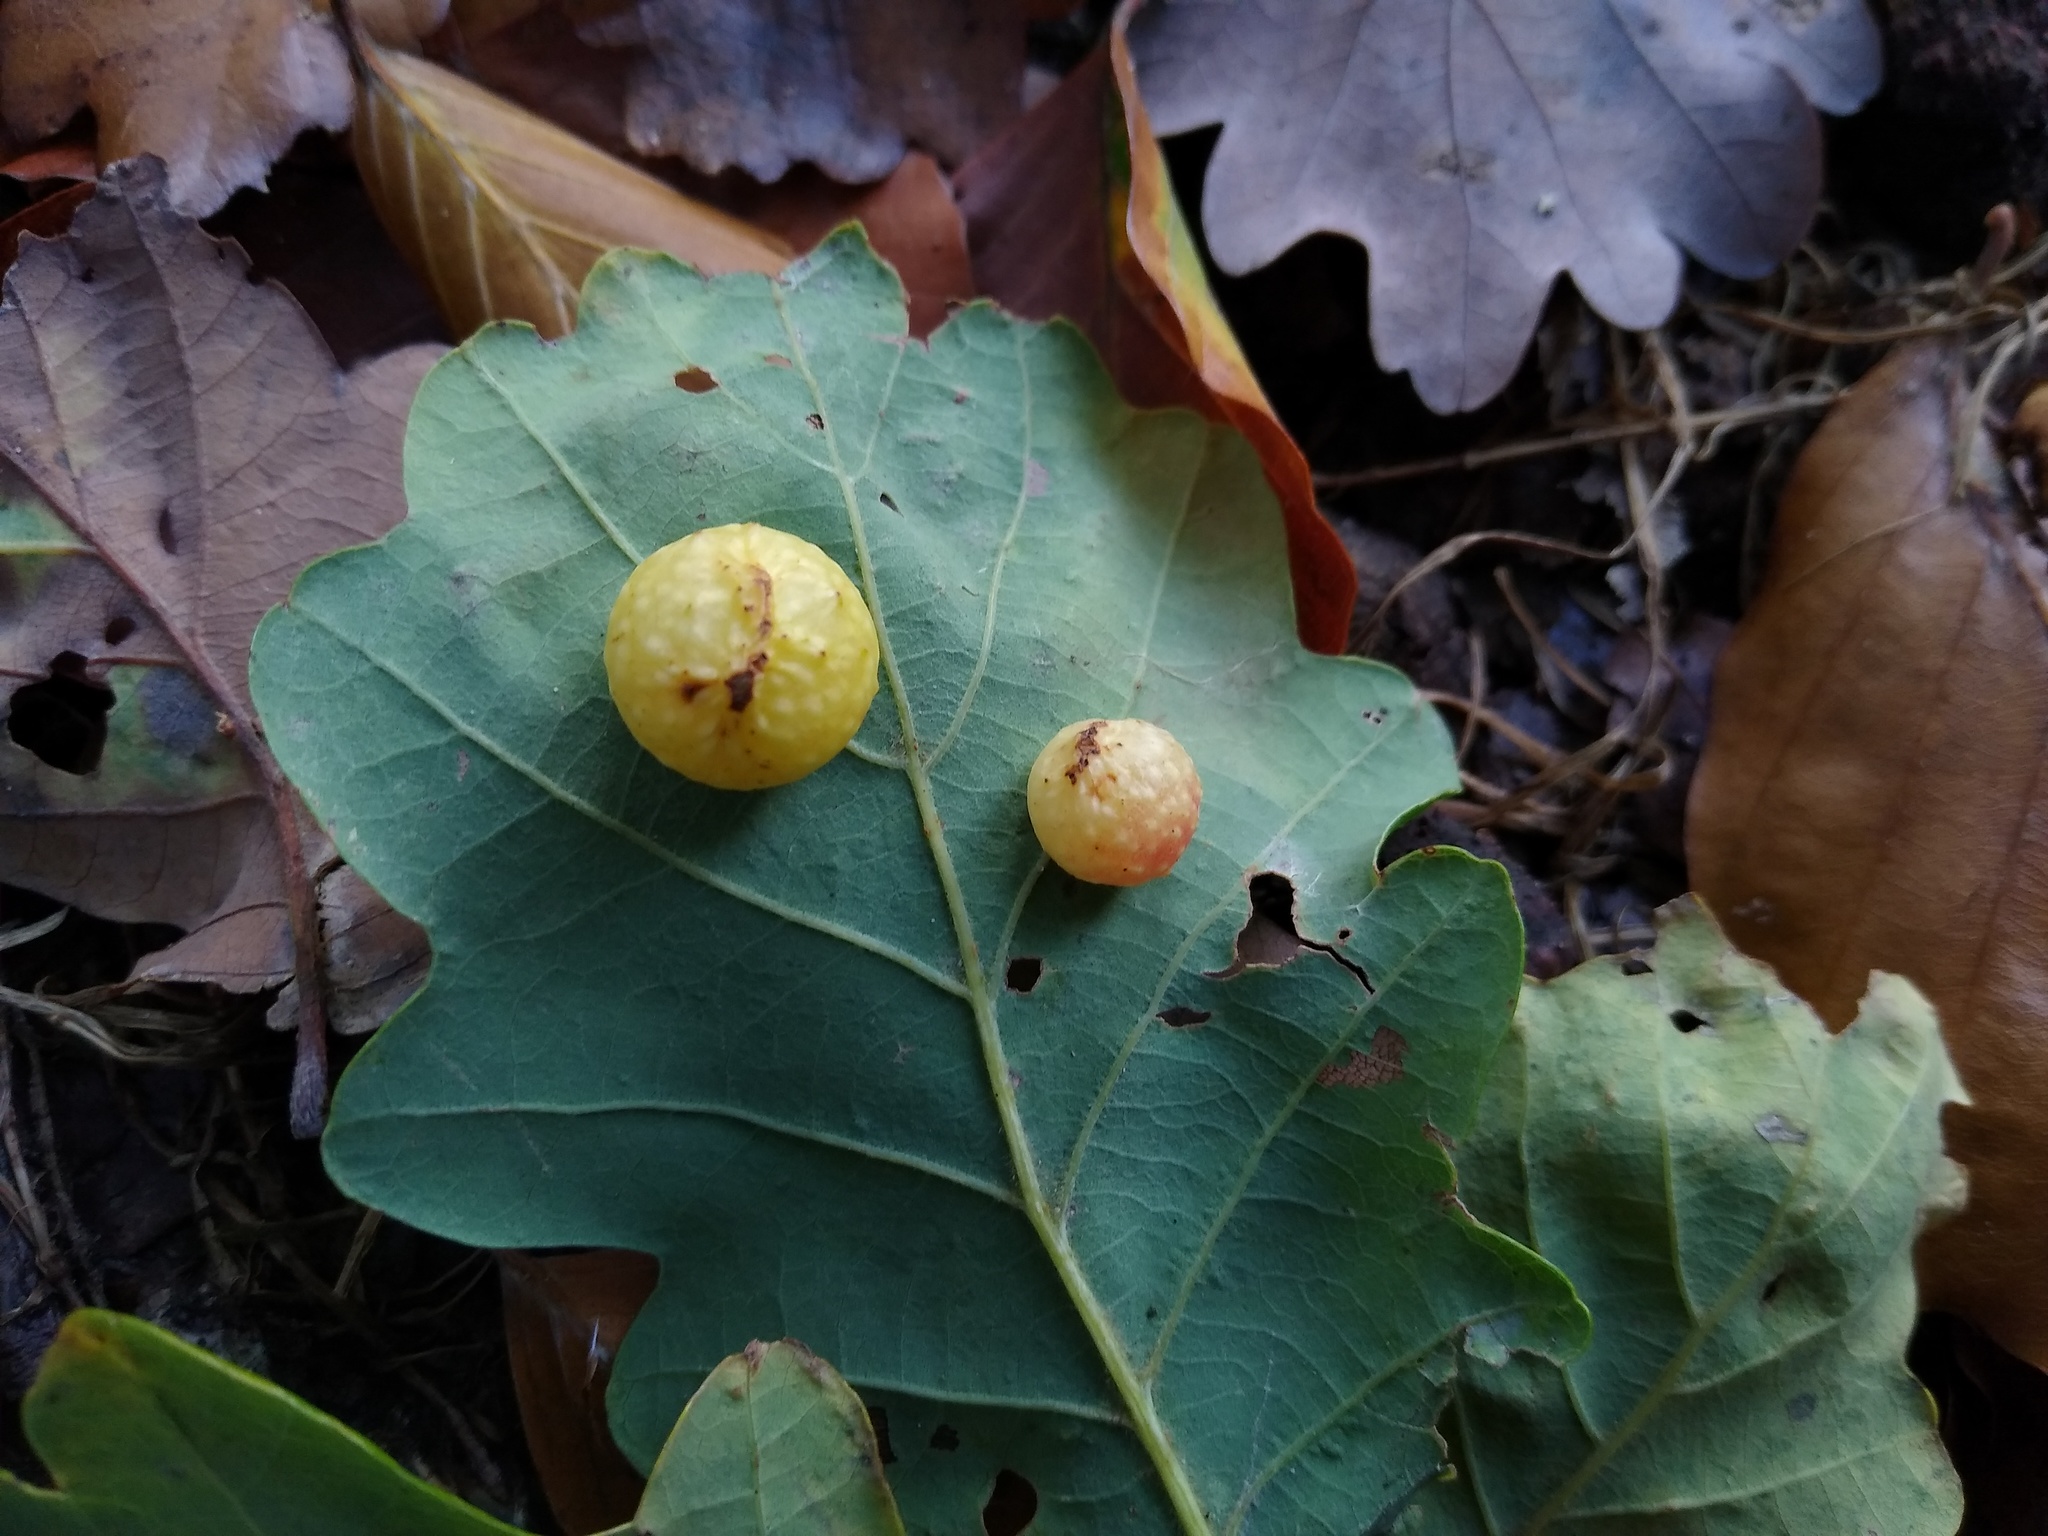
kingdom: Animalia
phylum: Arthropoda
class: Insecta
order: Hymenoptera
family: Cynipidae
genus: Cynips
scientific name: Cynips quercusfolii
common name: Cherry gall
